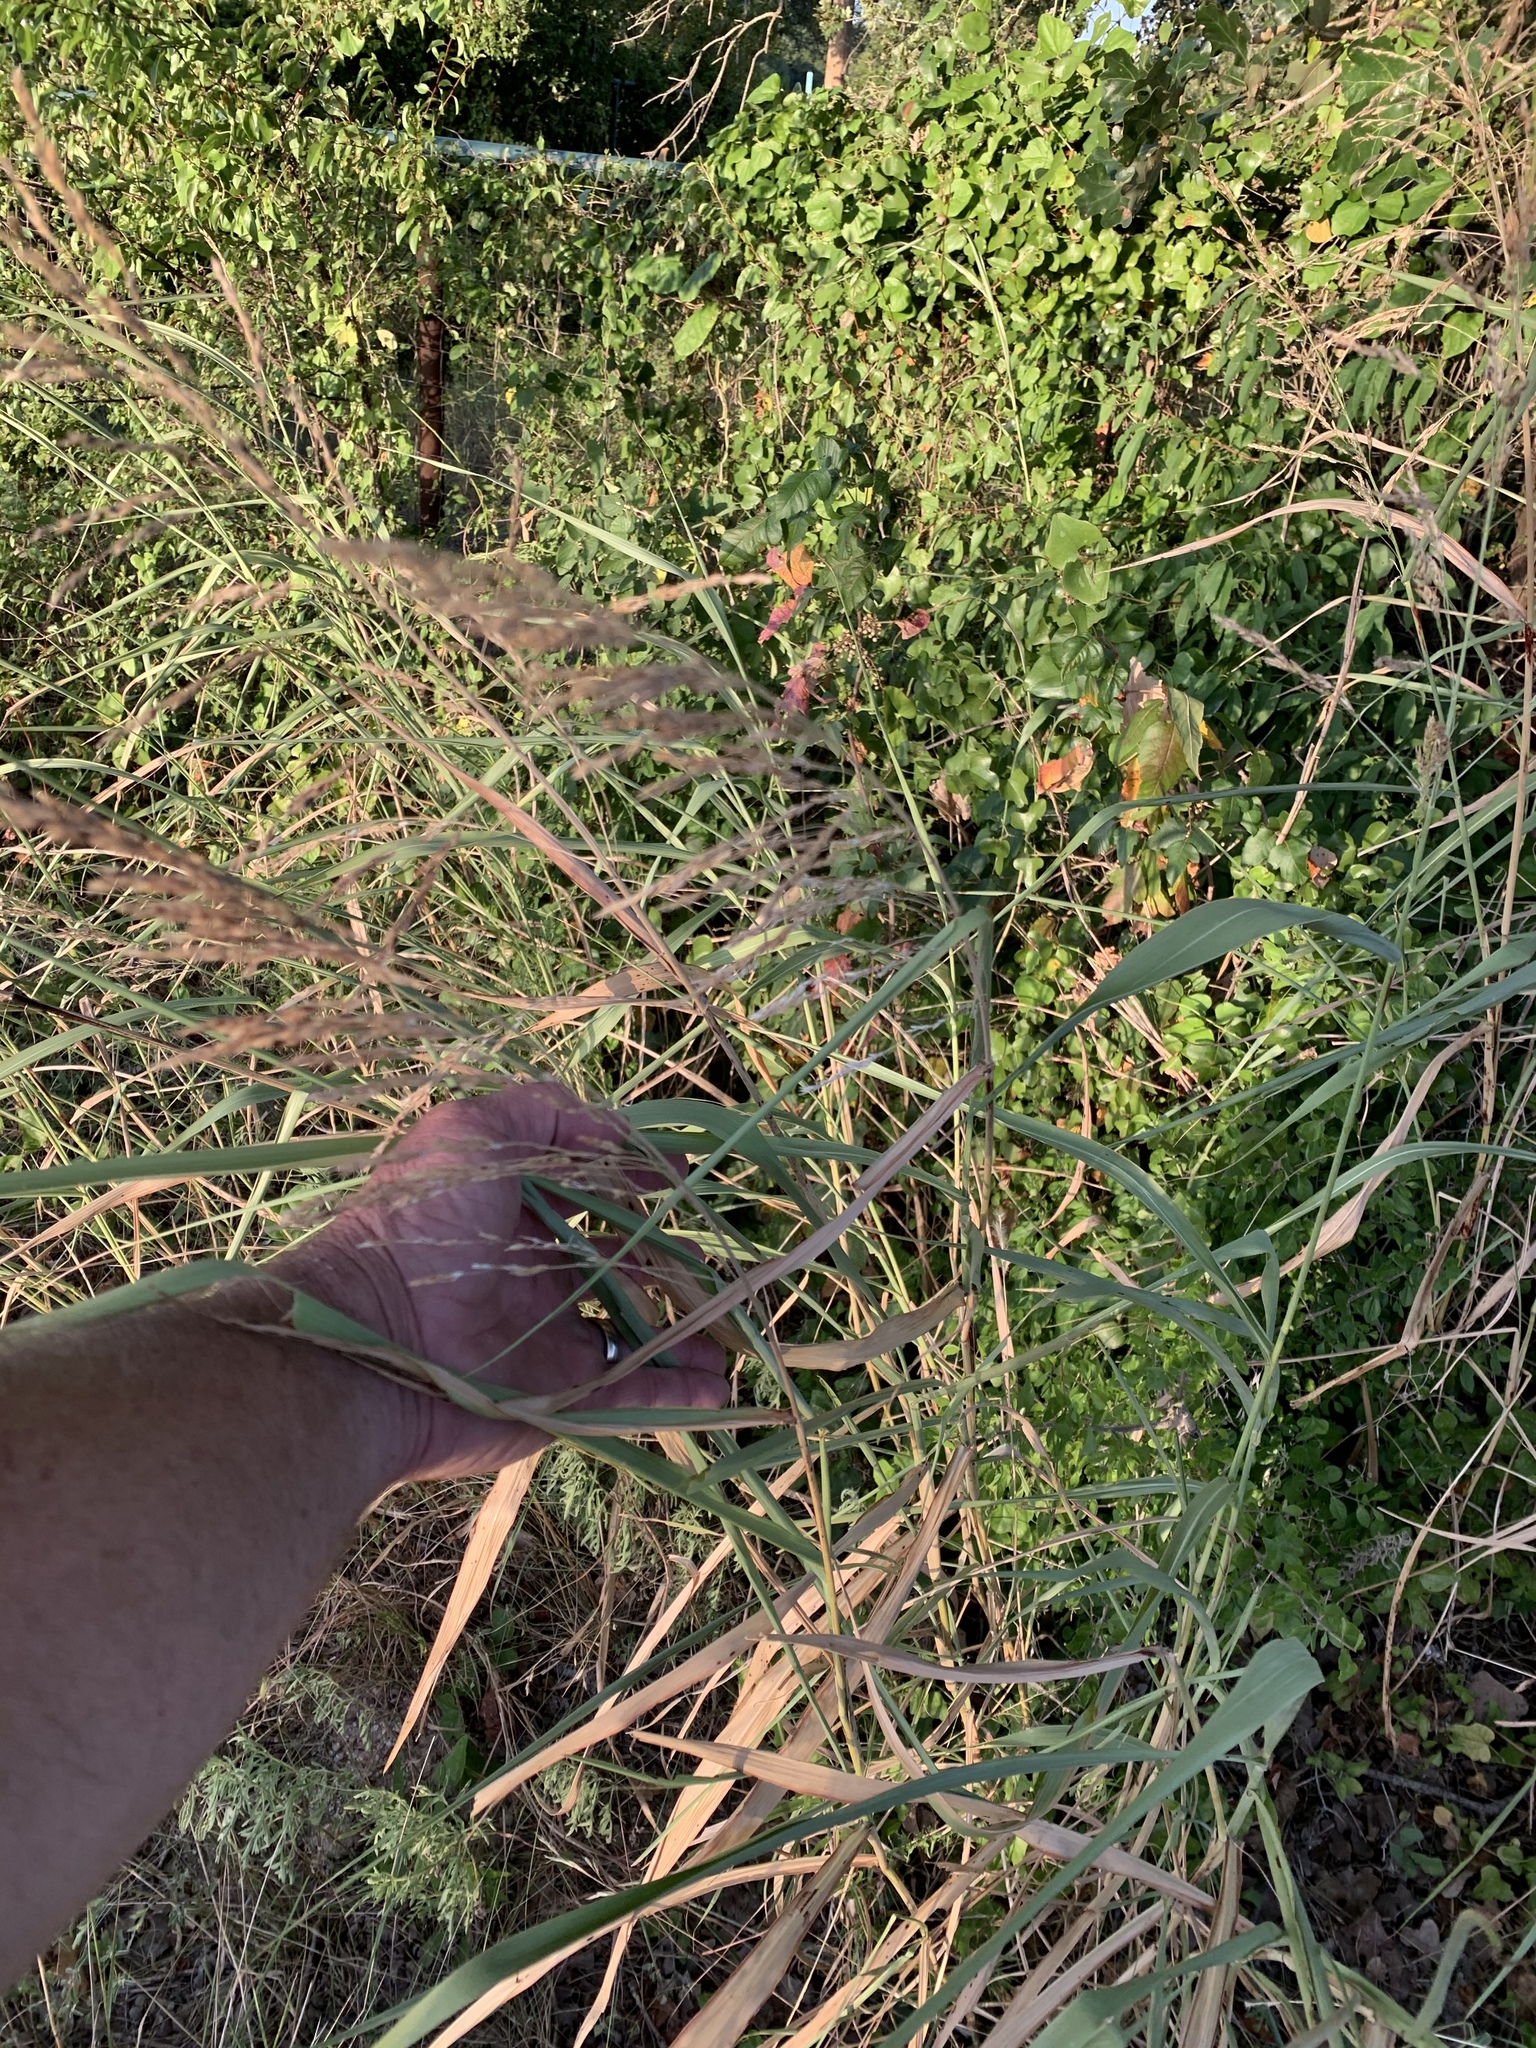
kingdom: Plantae
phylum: Tracheophyta
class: Liliopsida
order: Poales
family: Poaceae
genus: Sorghum
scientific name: Sorghum halepense
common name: Johnson-grass
